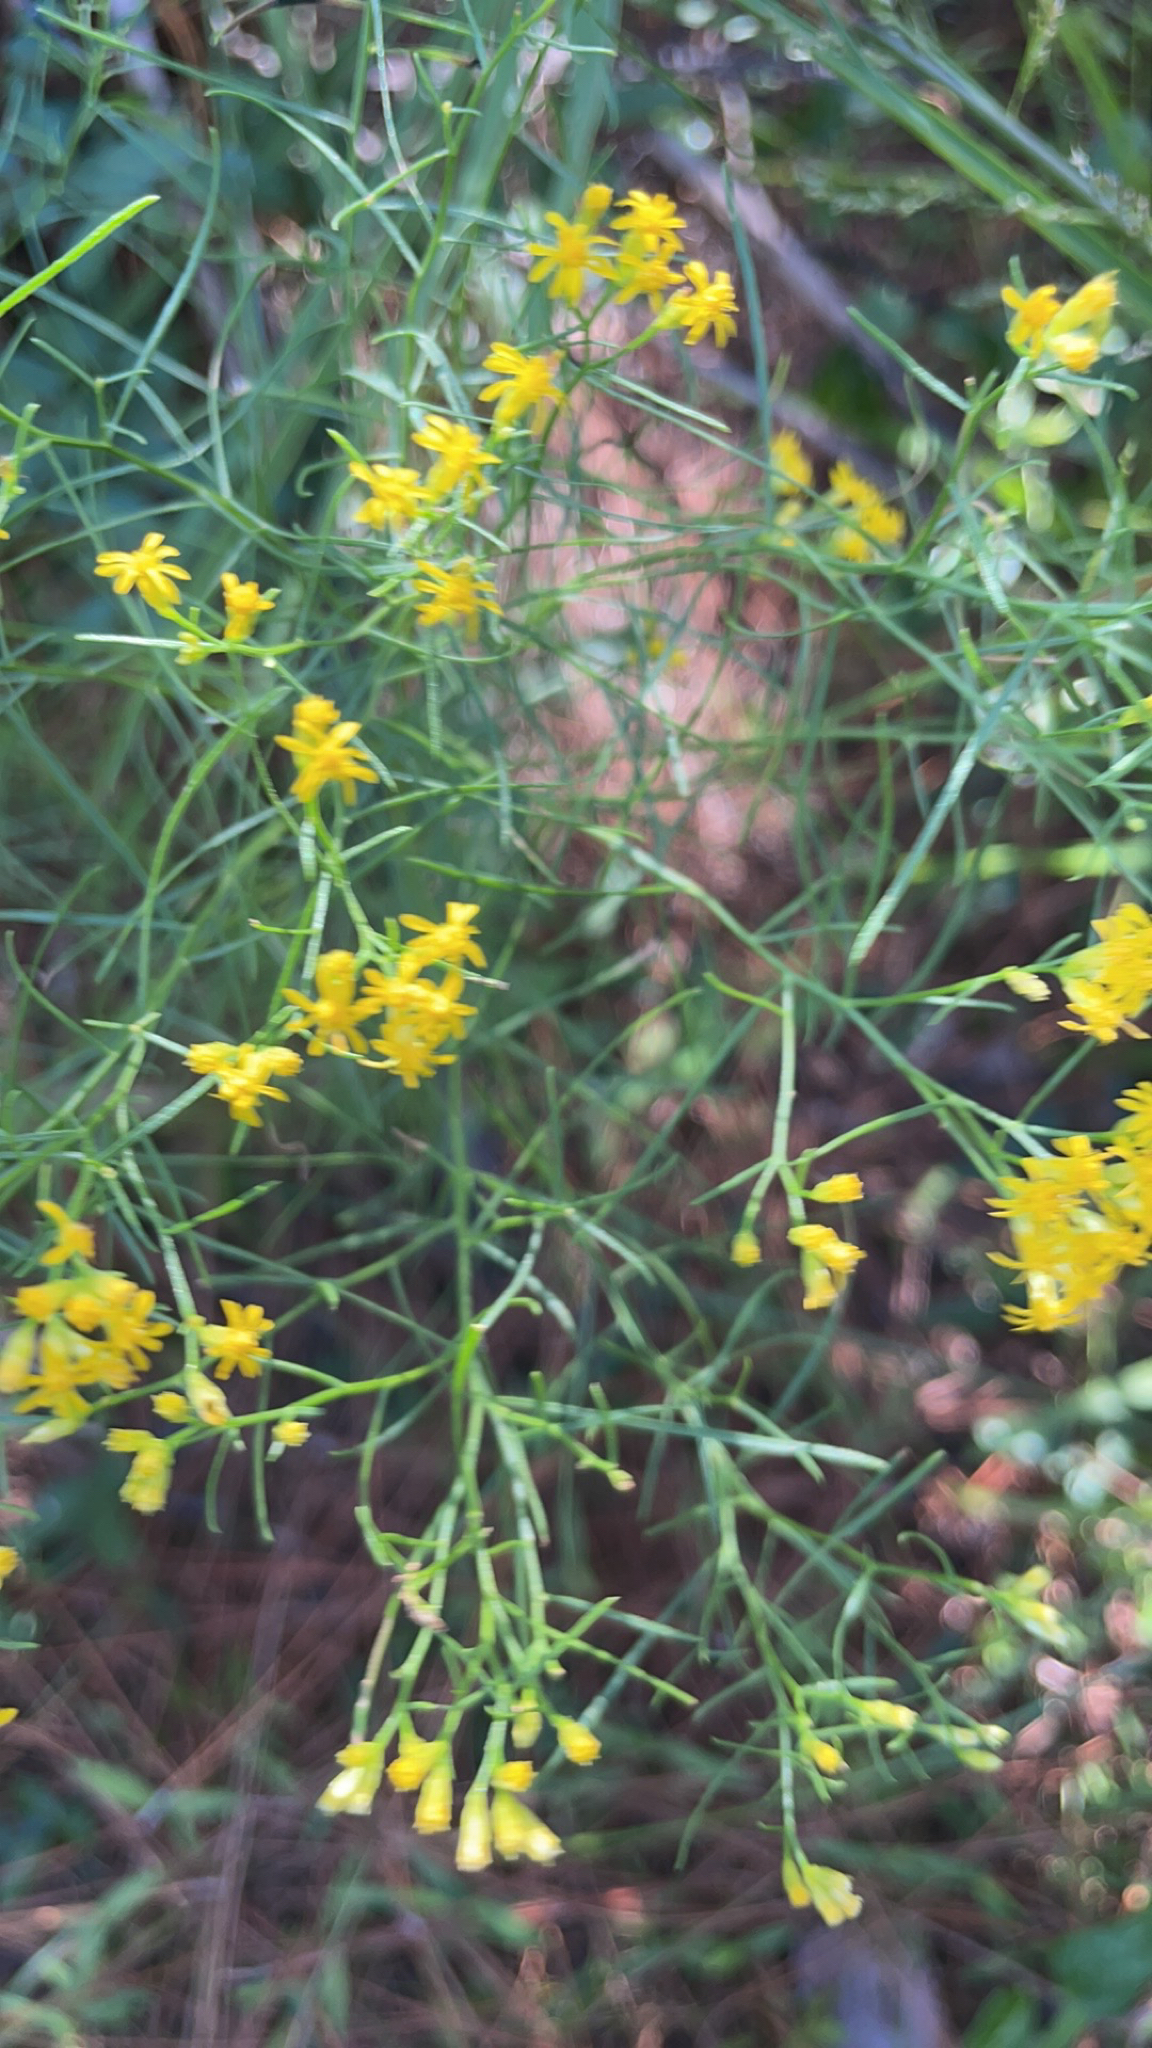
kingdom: Plantae
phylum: Tracheophyta
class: Magnoliopsida
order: Asterales
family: Asteraceae
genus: Euthamia
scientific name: Euthamia caroliniana
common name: Coastal plain goldentop
